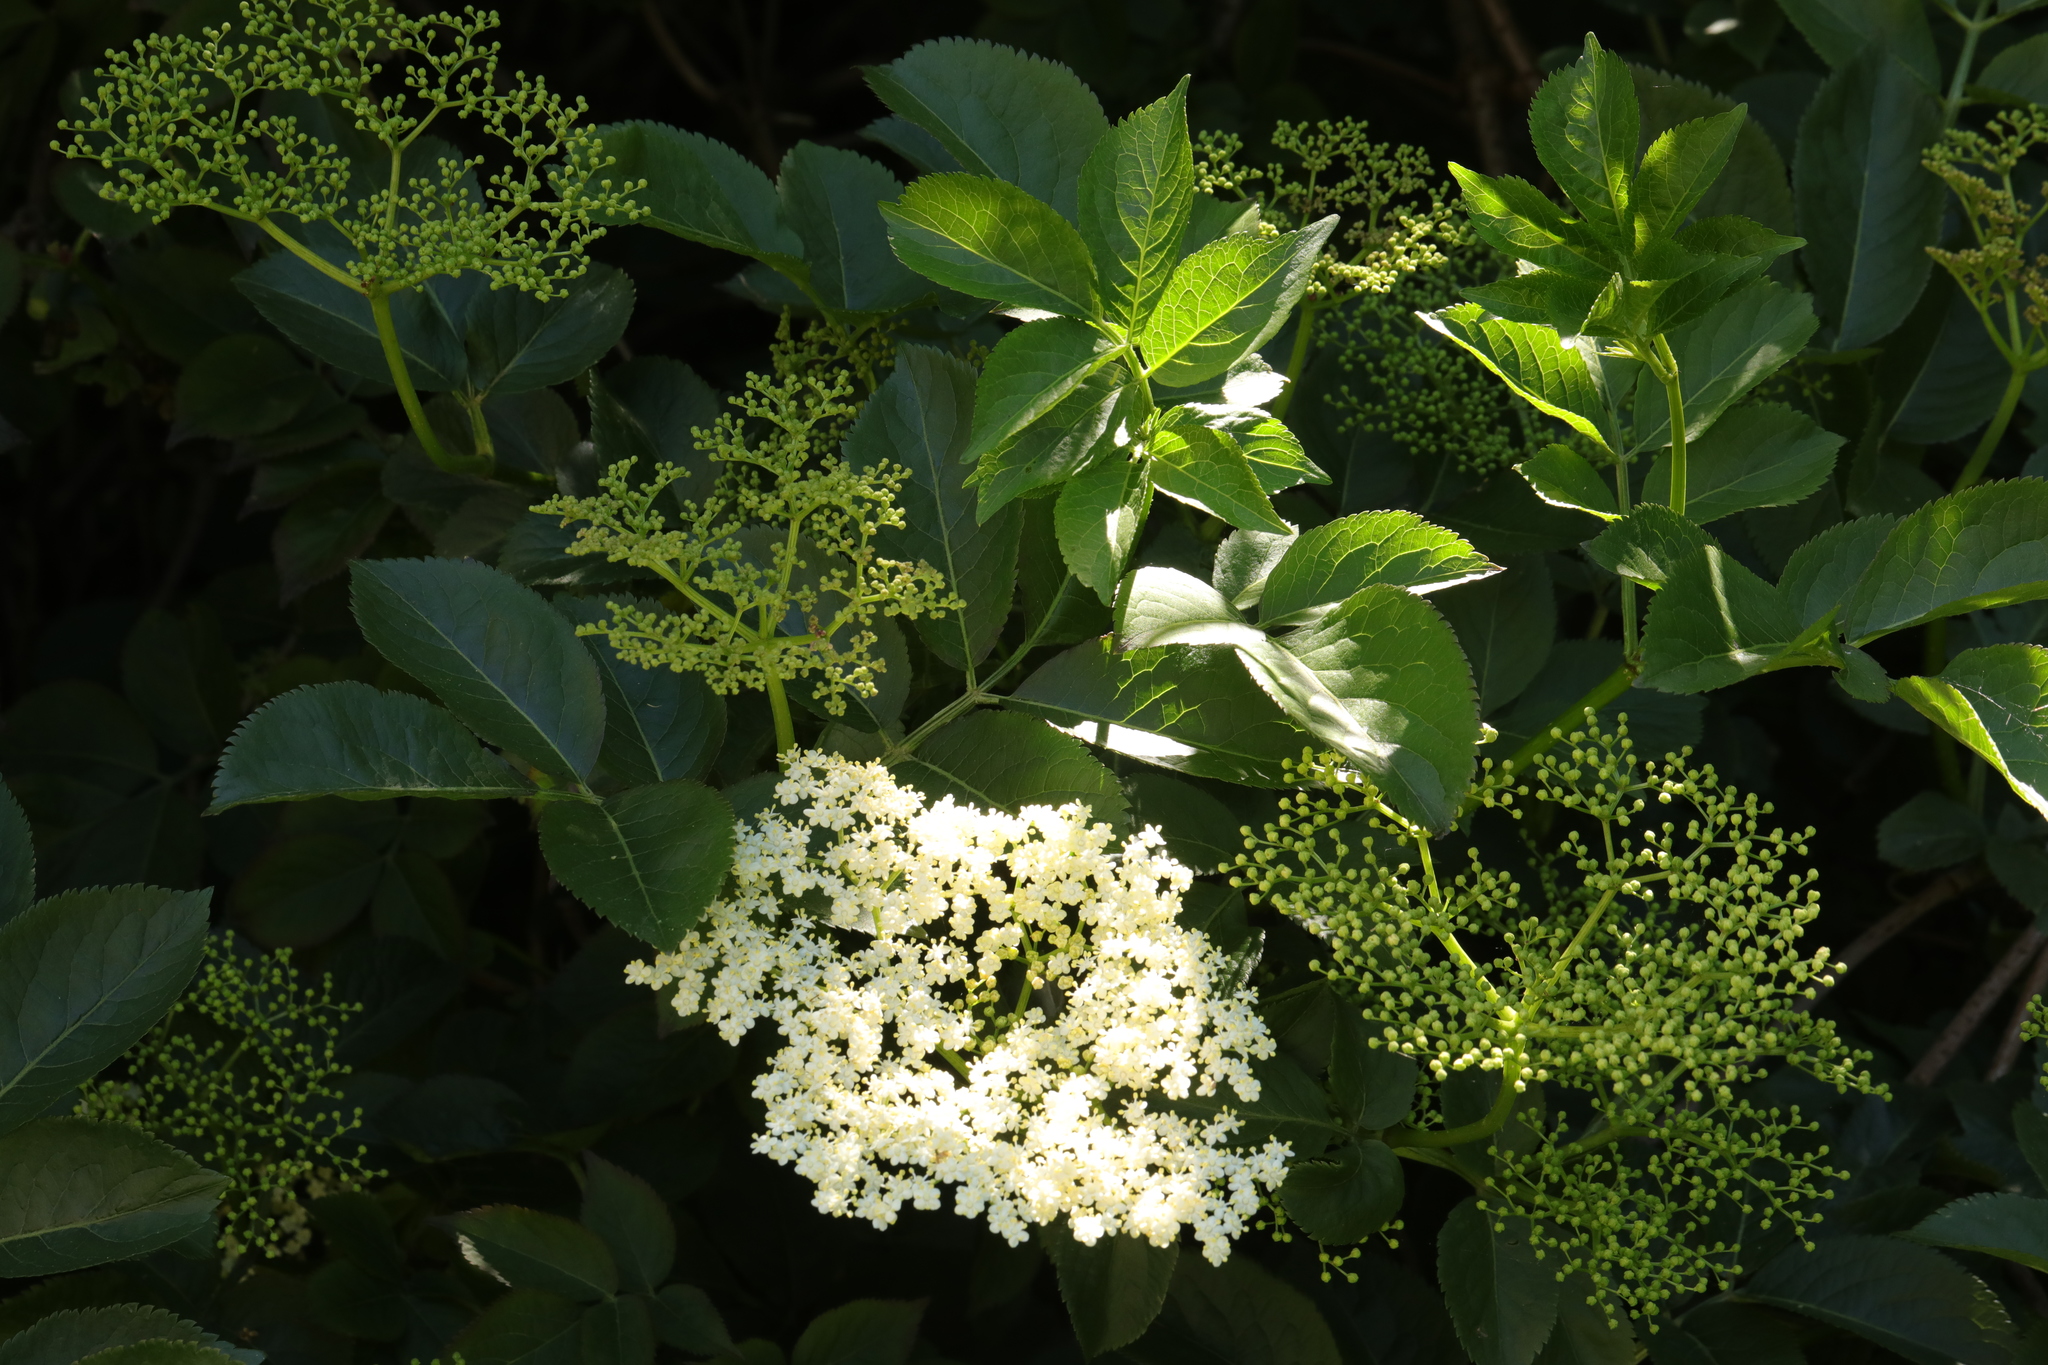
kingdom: Plantae
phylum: Tracheophyta
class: Magnoliopsida
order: Dipsacales
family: Viburnaceae
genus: Sambucus
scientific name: Sambucus nigra
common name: Elder
